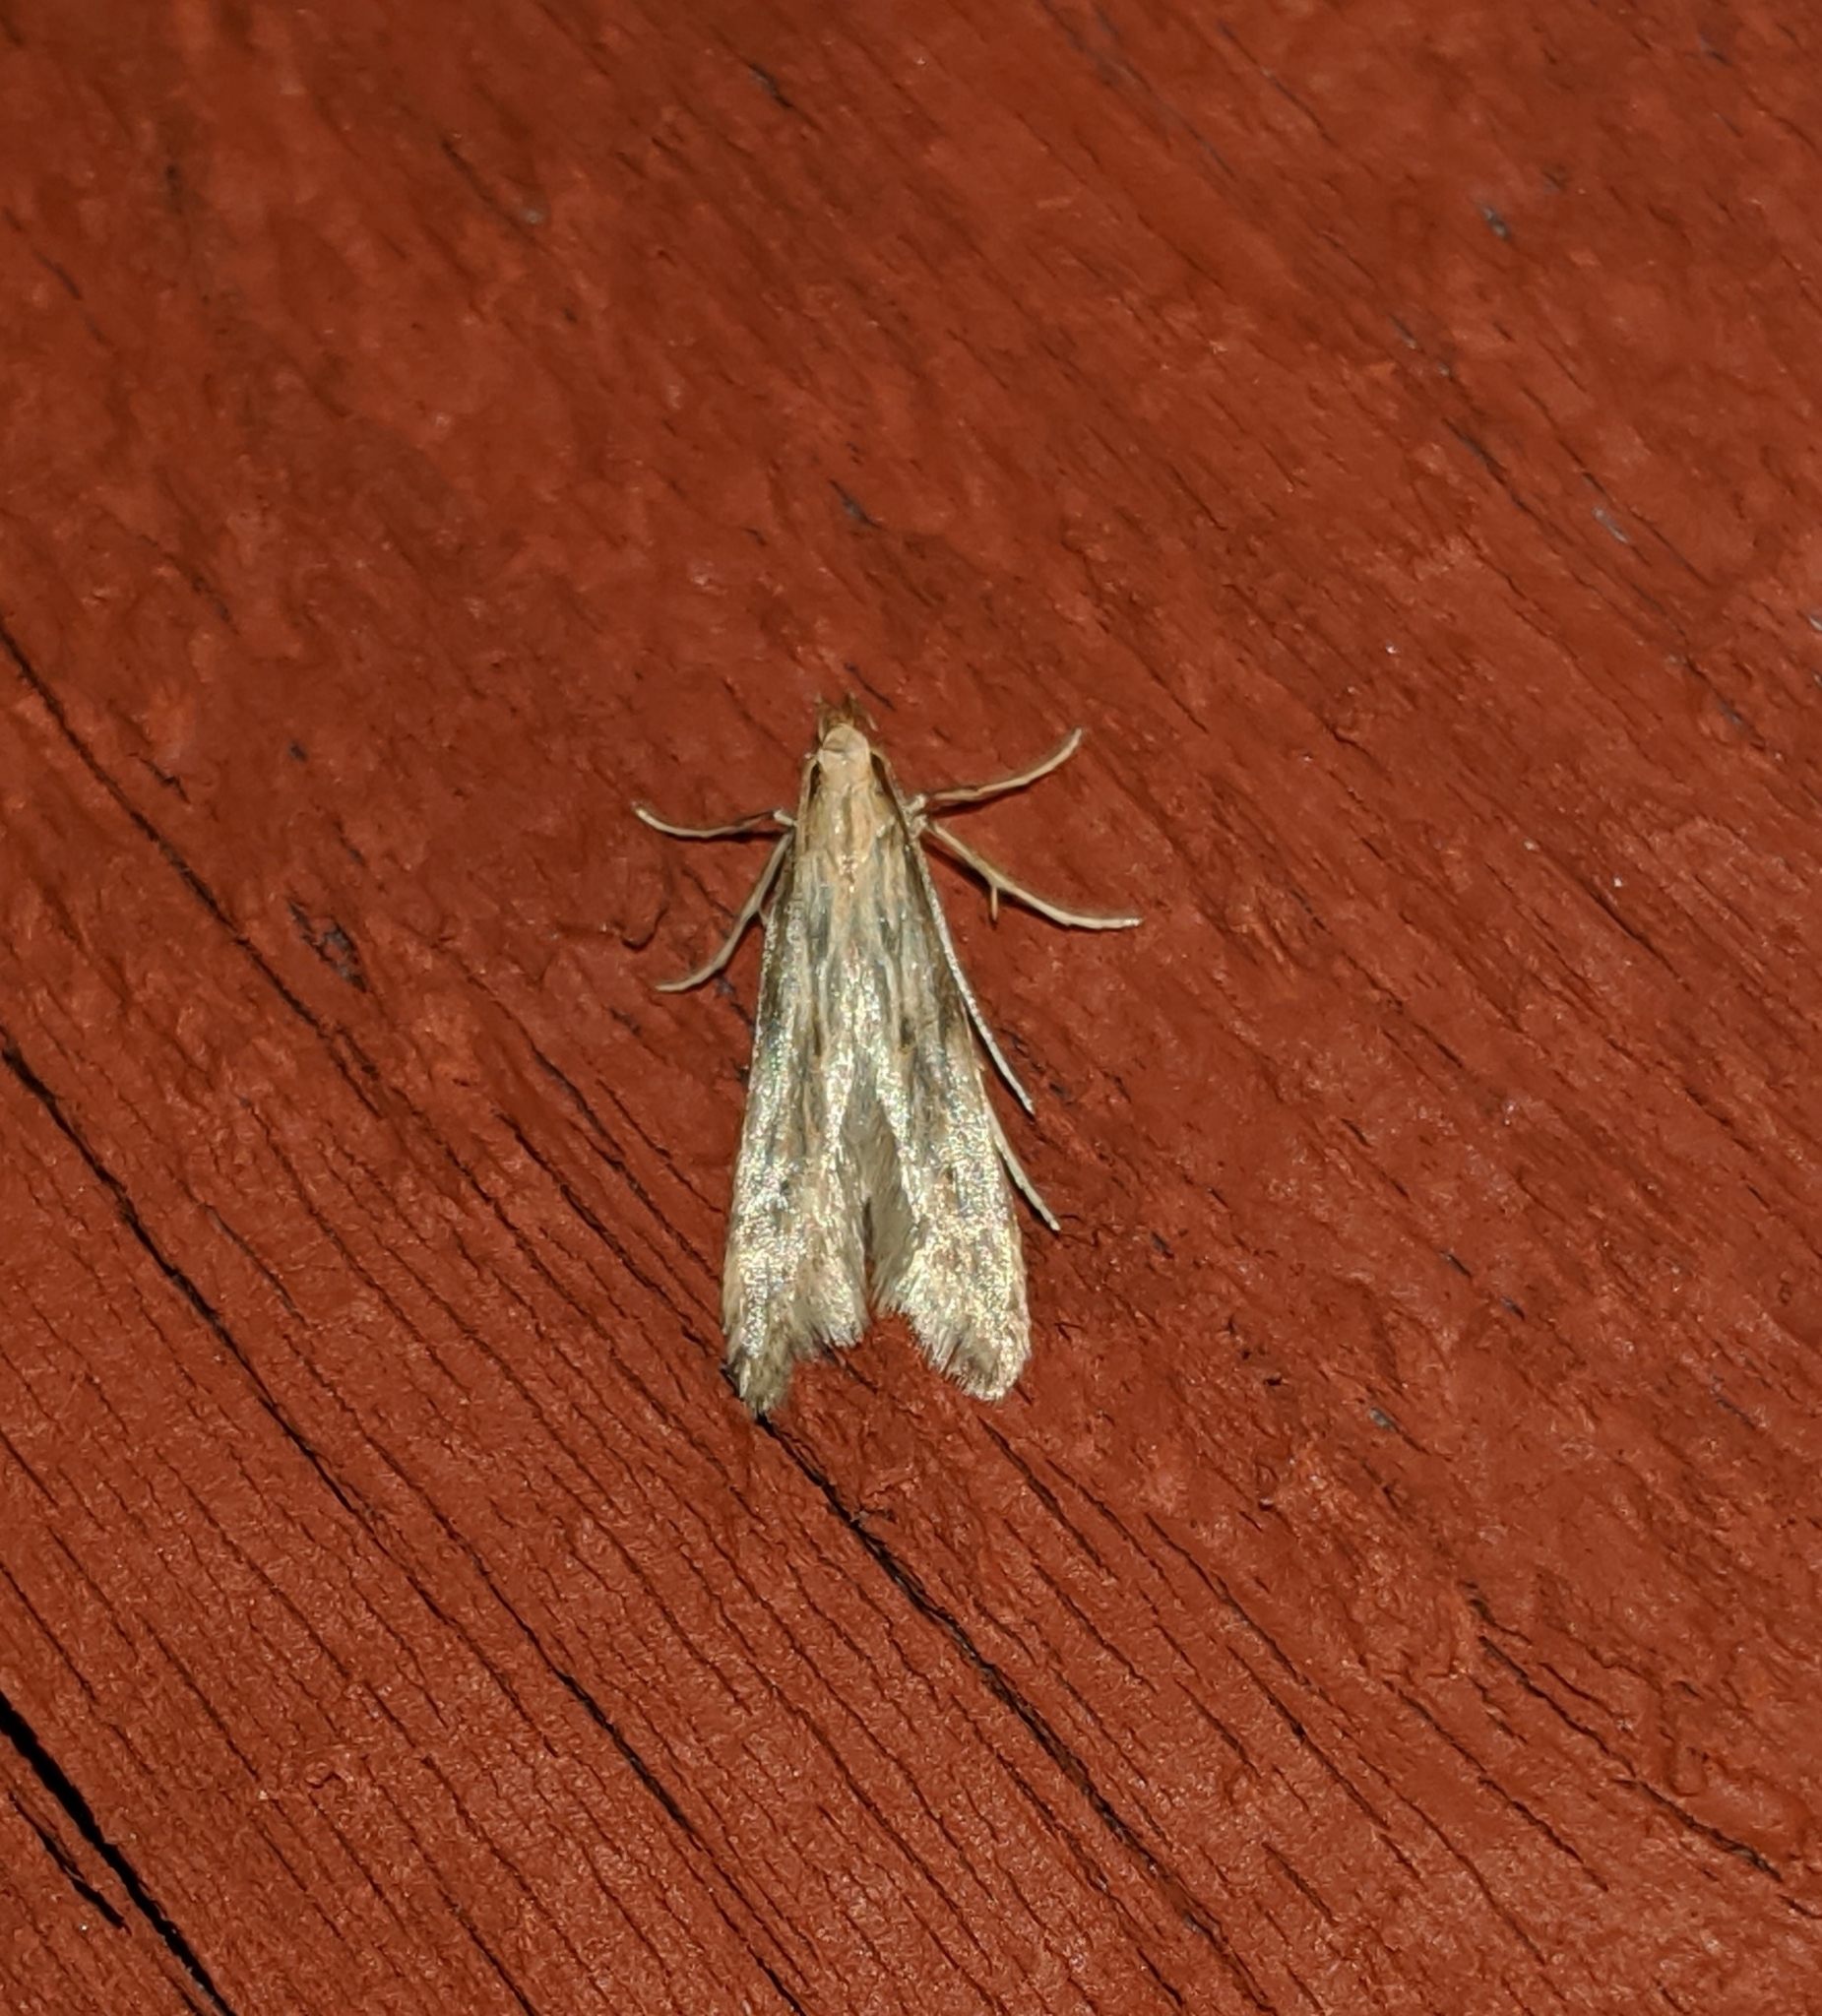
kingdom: Animalia
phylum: Arthropoda
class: Insecta
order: Lepidoptera
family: Gelechiidae
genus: Metzneria
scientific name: Metzneria lappella
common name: Burdock neb
